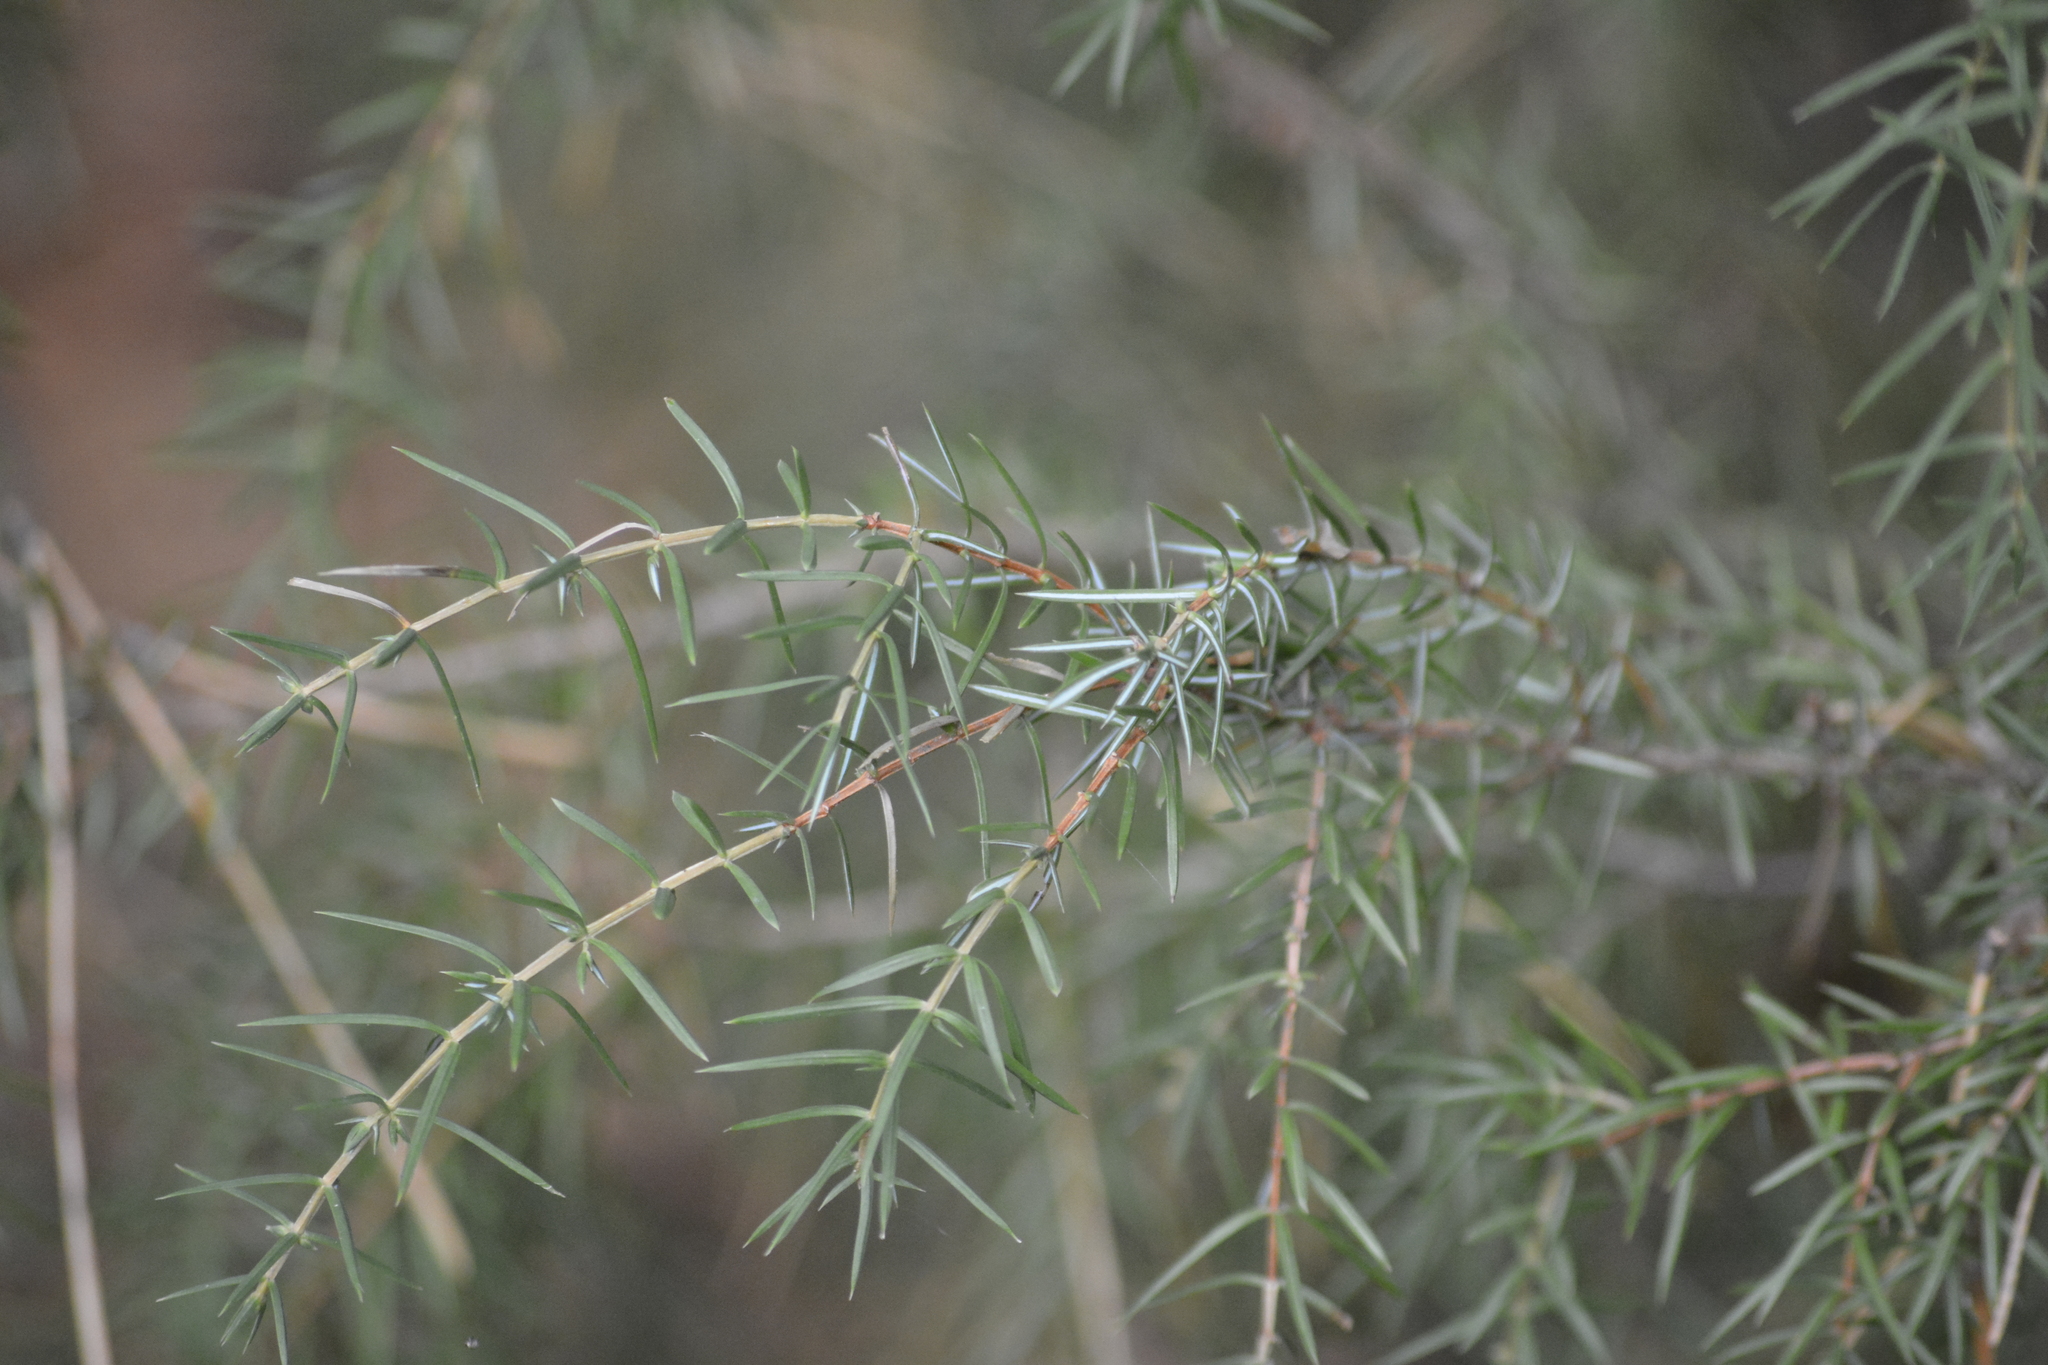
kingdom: Plantae
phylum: Tracheophyta
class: Pinopsida
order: Pinales
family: Cupressaceae
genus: Juniperus
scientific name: Juniperus communis
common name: Common juniper
